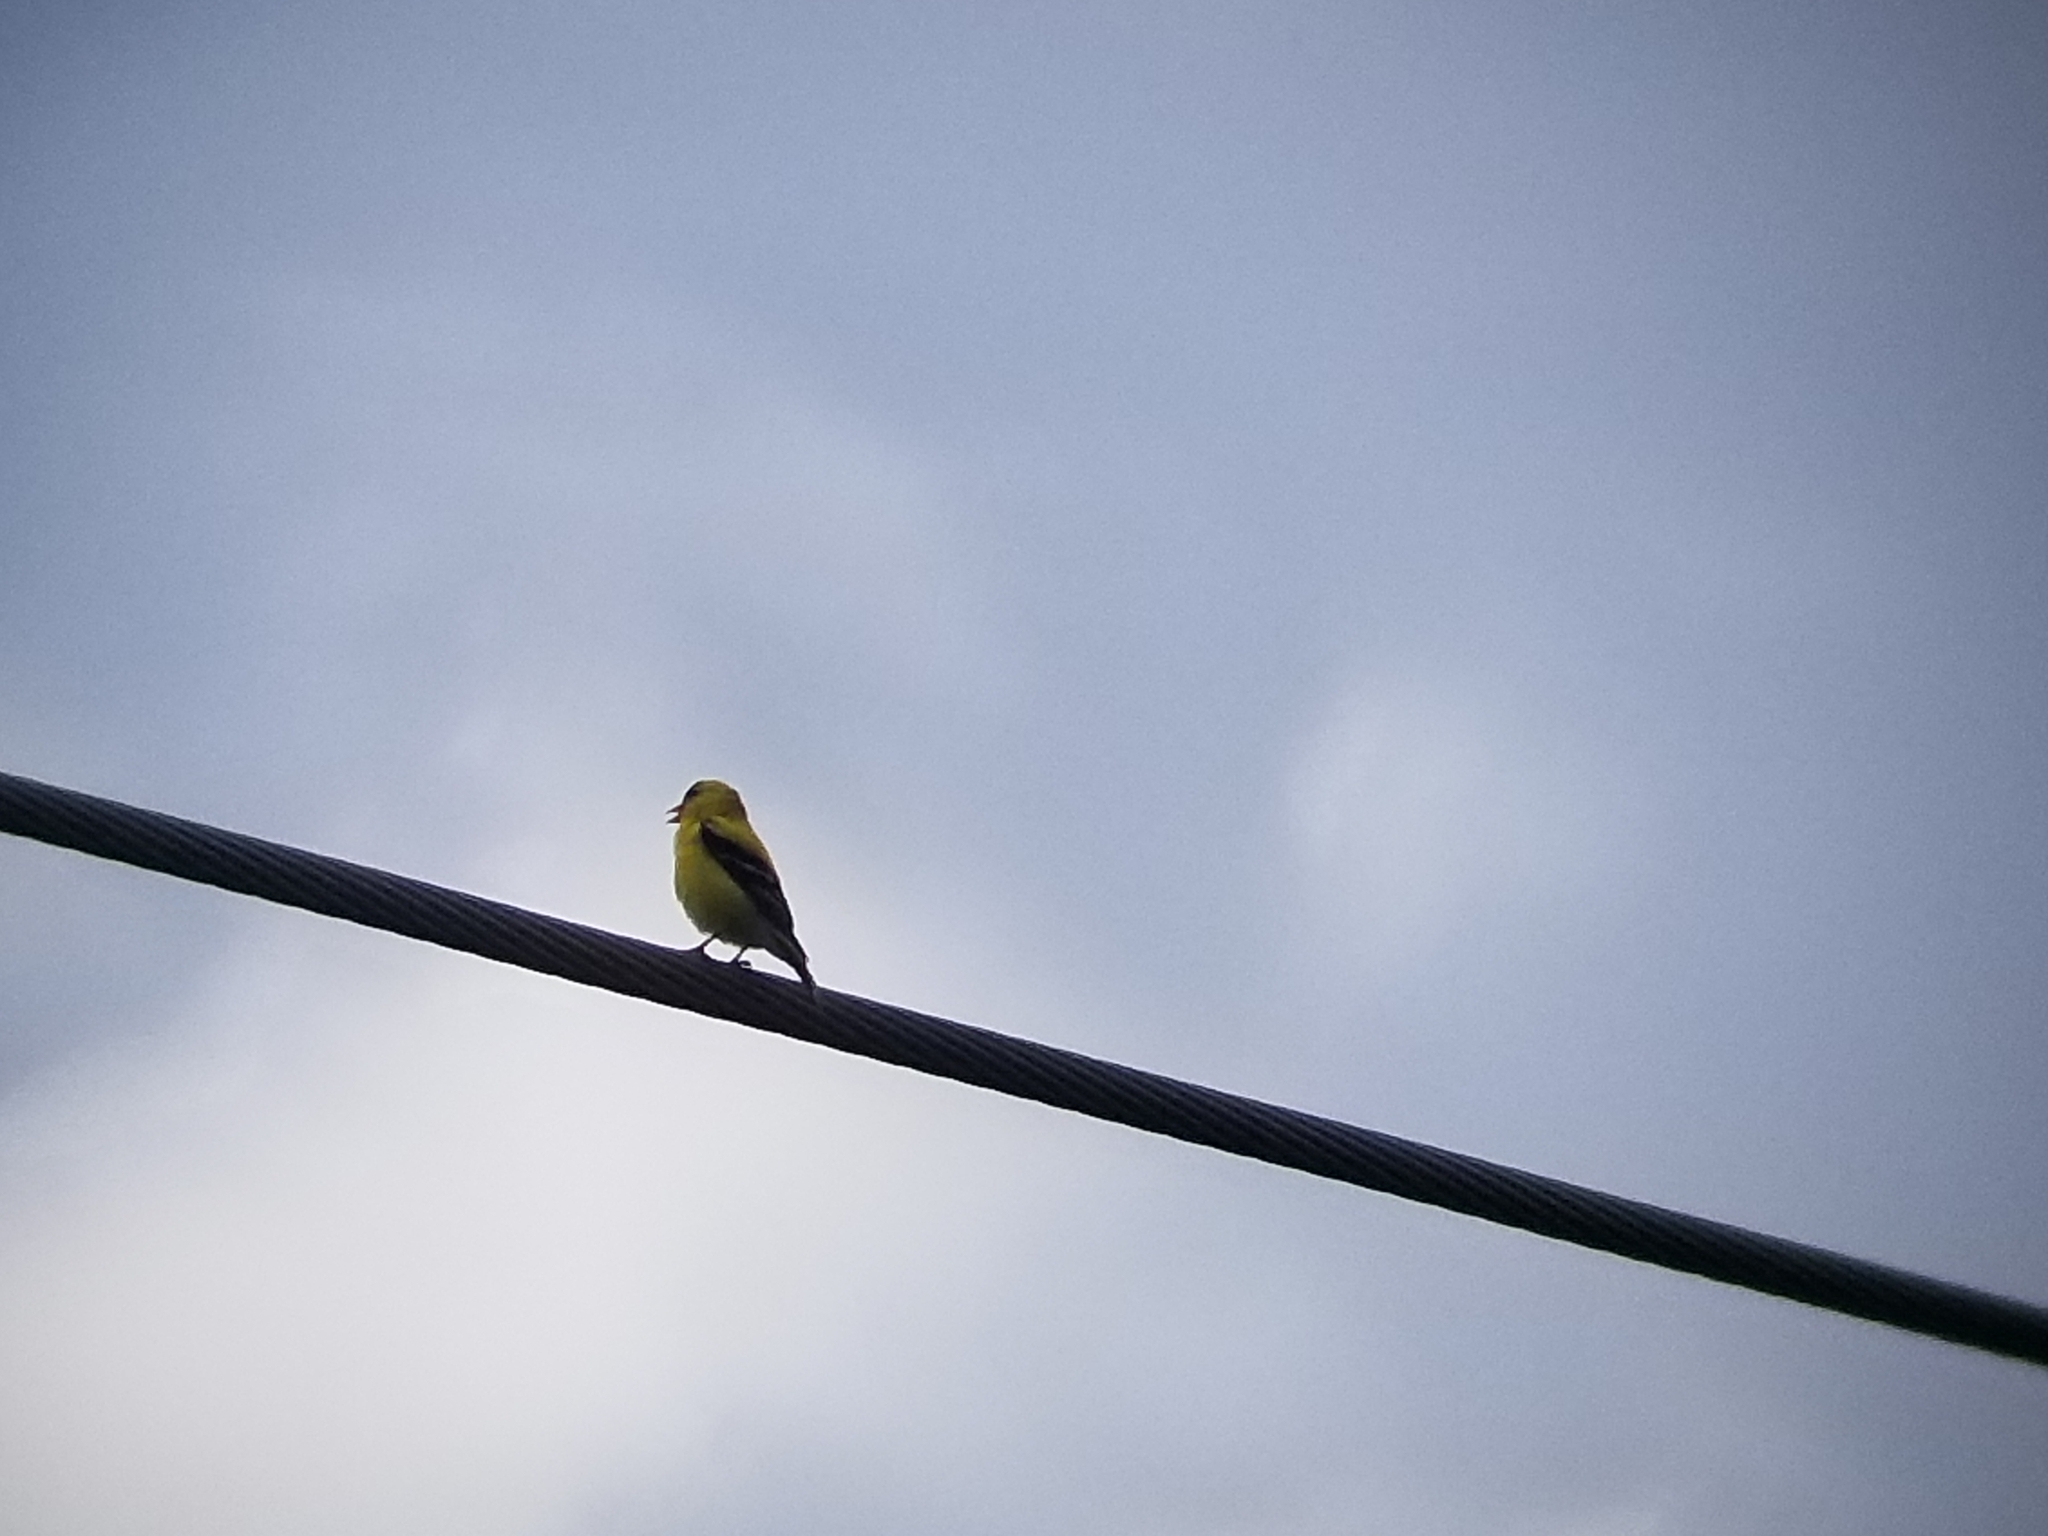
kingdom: Animalia
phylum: Chordata
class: Aves
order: Passeriformes
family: Fringillidae
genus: Spinus
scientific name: Spinus tristis
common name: American goldfinch
